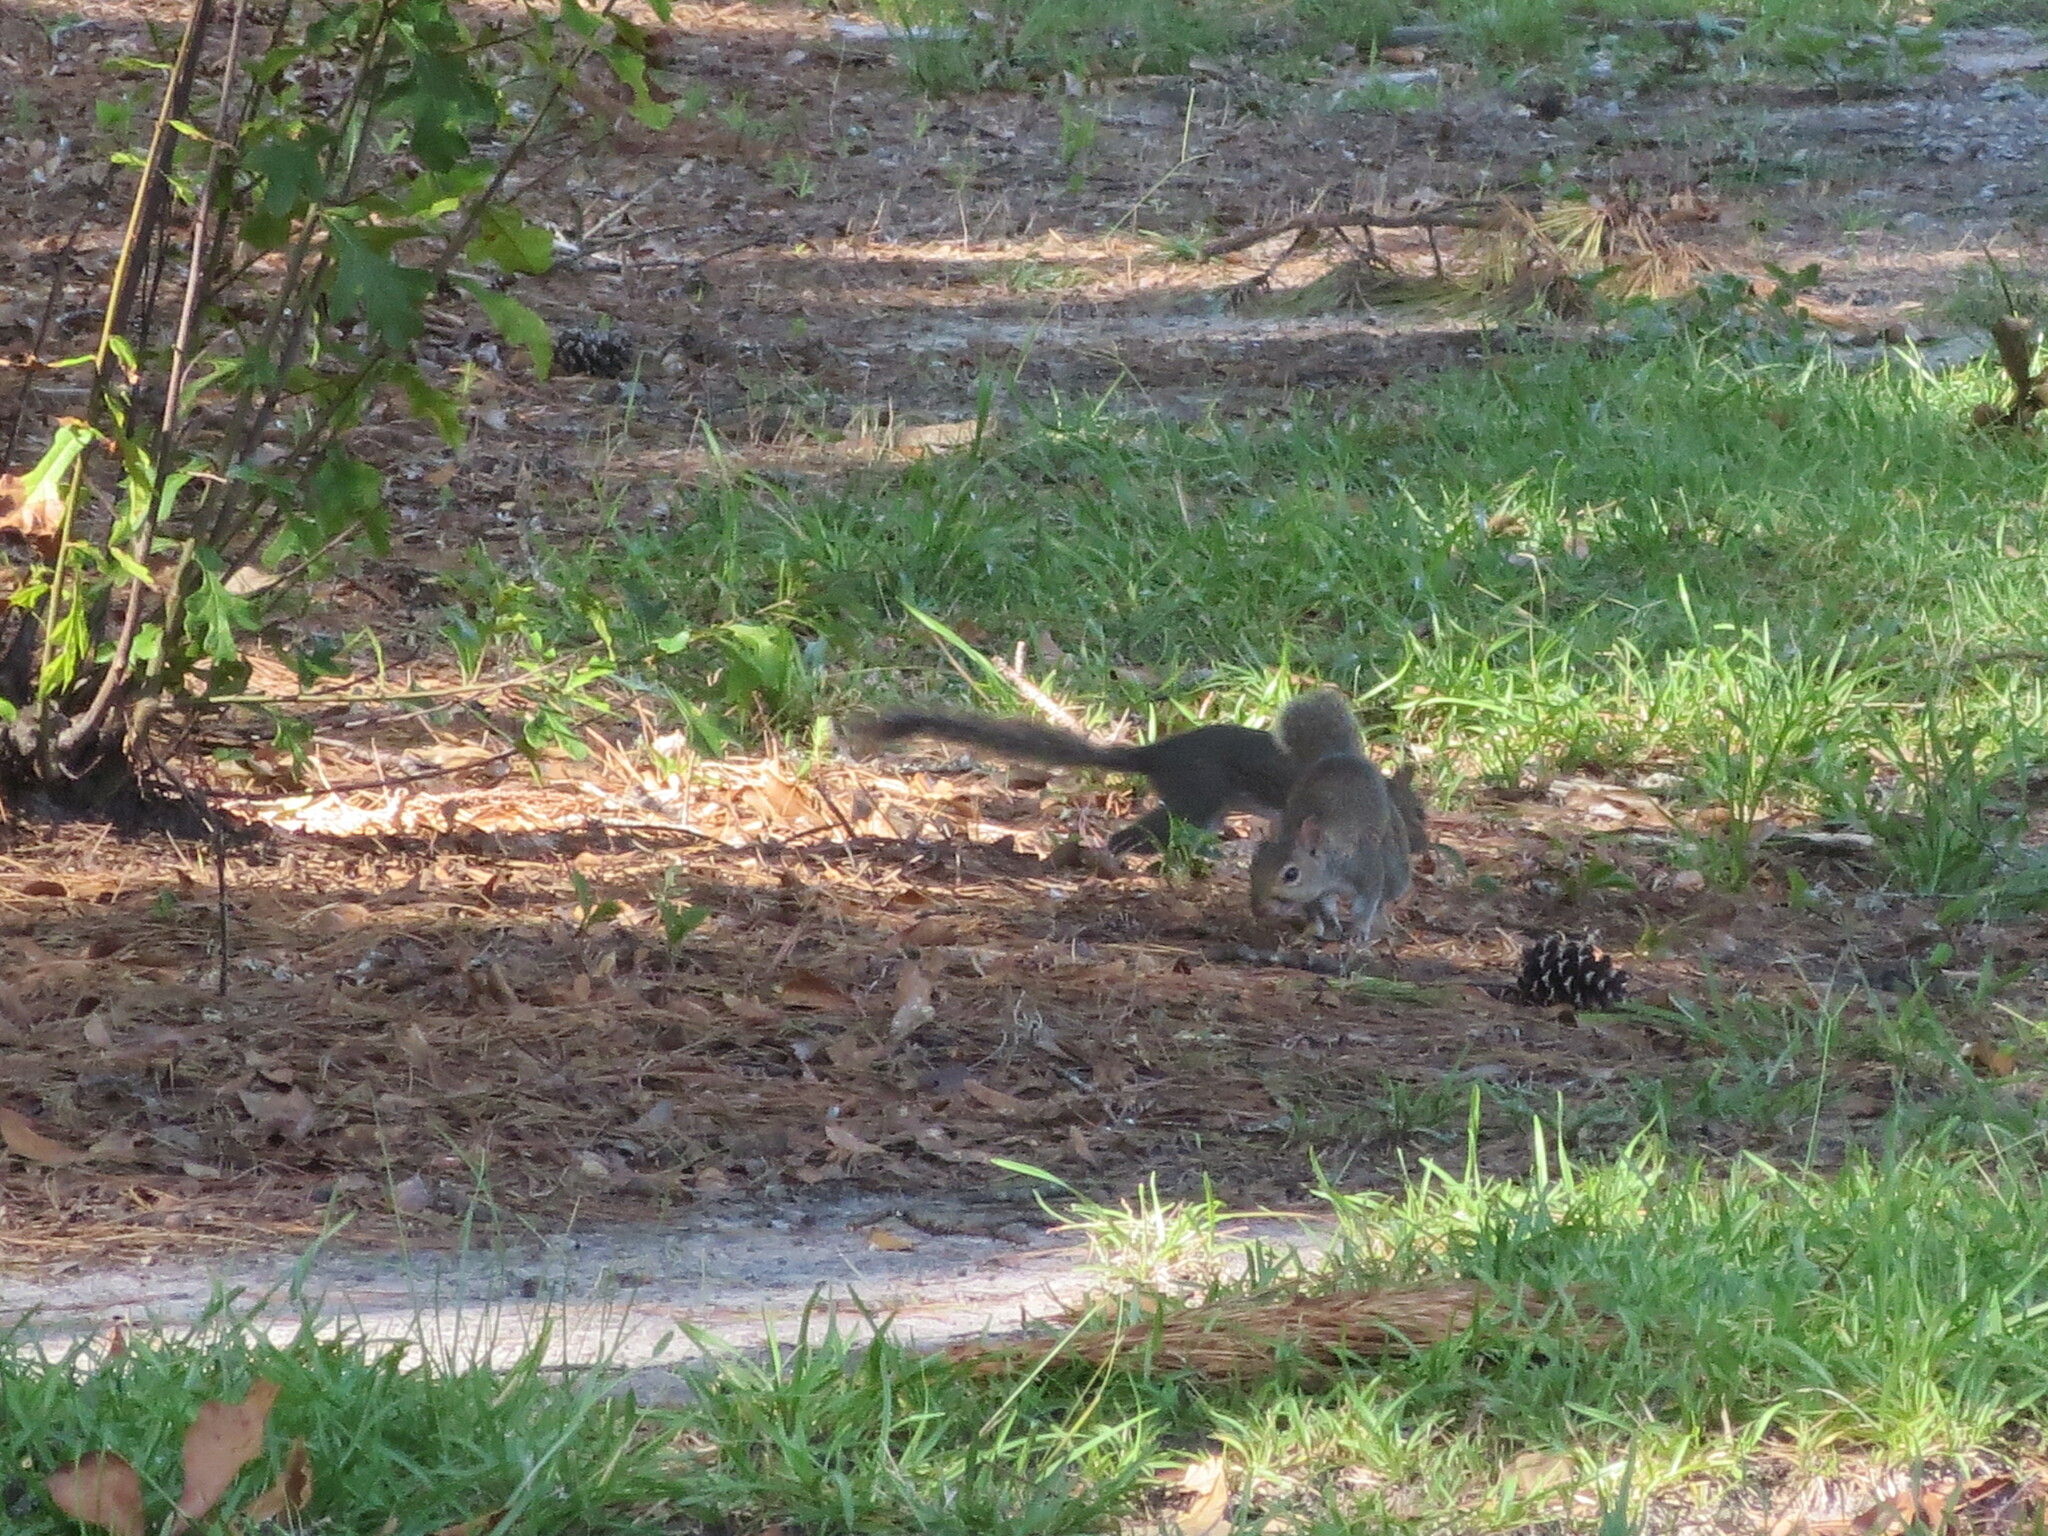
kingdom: Animalia
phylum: Chordata
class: Mammalia
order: Rodentia
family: Sciuridae
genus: Sciurus
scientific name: Sciurus carolinensis
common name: Eastern gray squirrel
